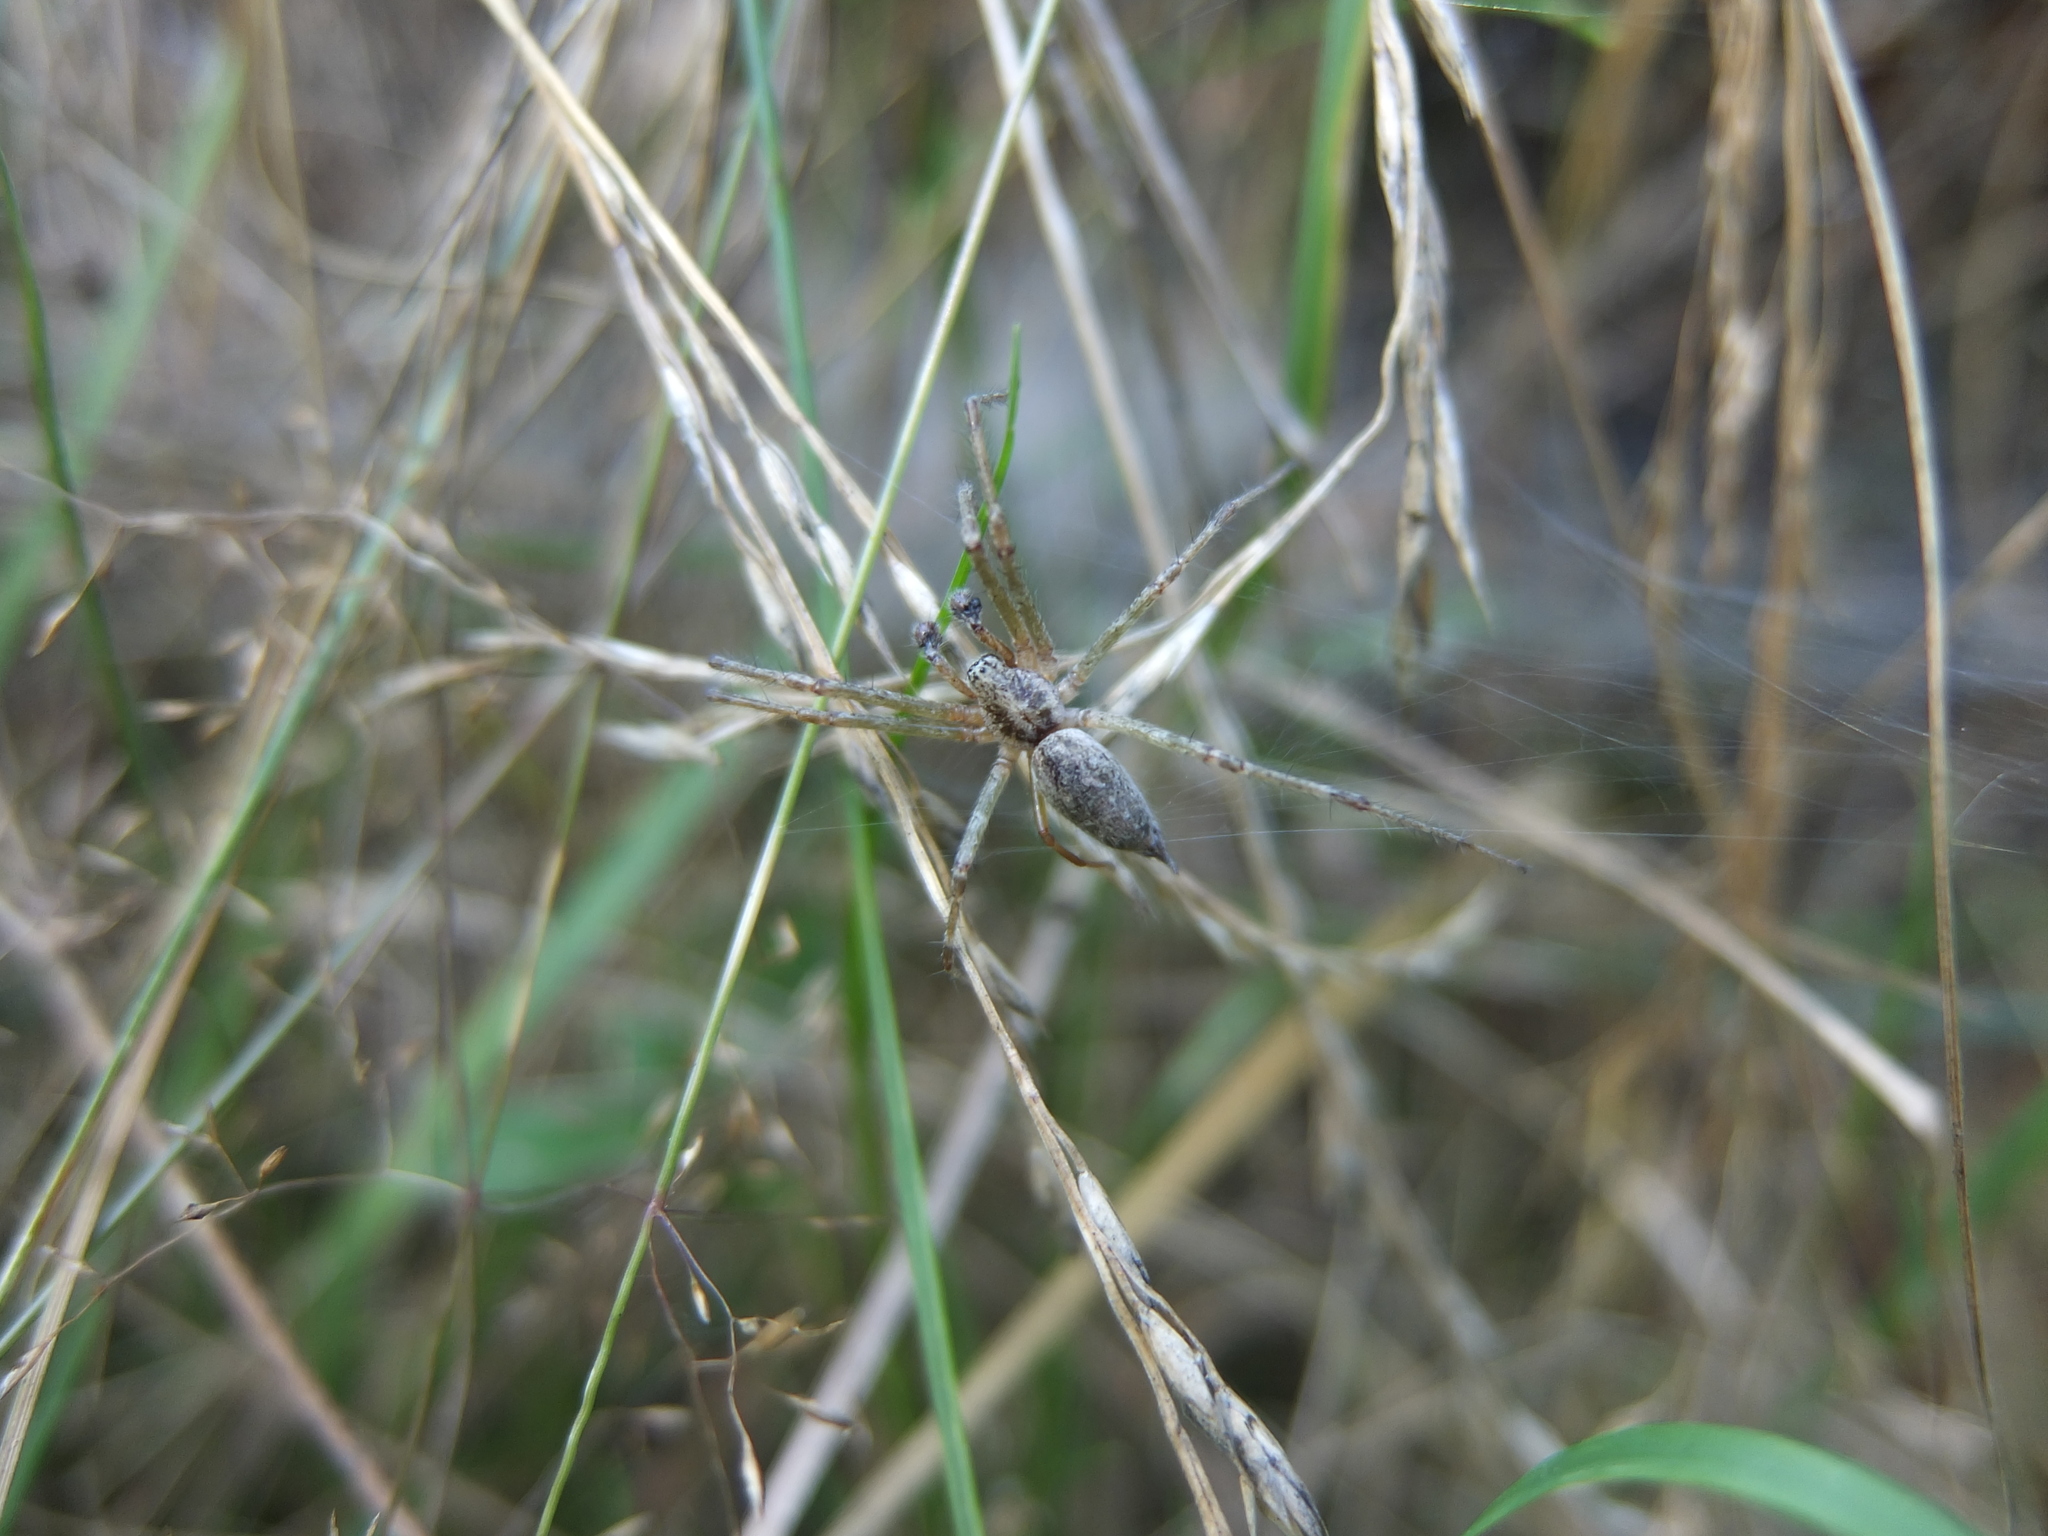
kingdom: Animalia
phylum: Arthropoda
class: Arachnida
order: Araneae
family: Agelenidae
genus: Allagelena
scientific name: Allagelena gracilens
